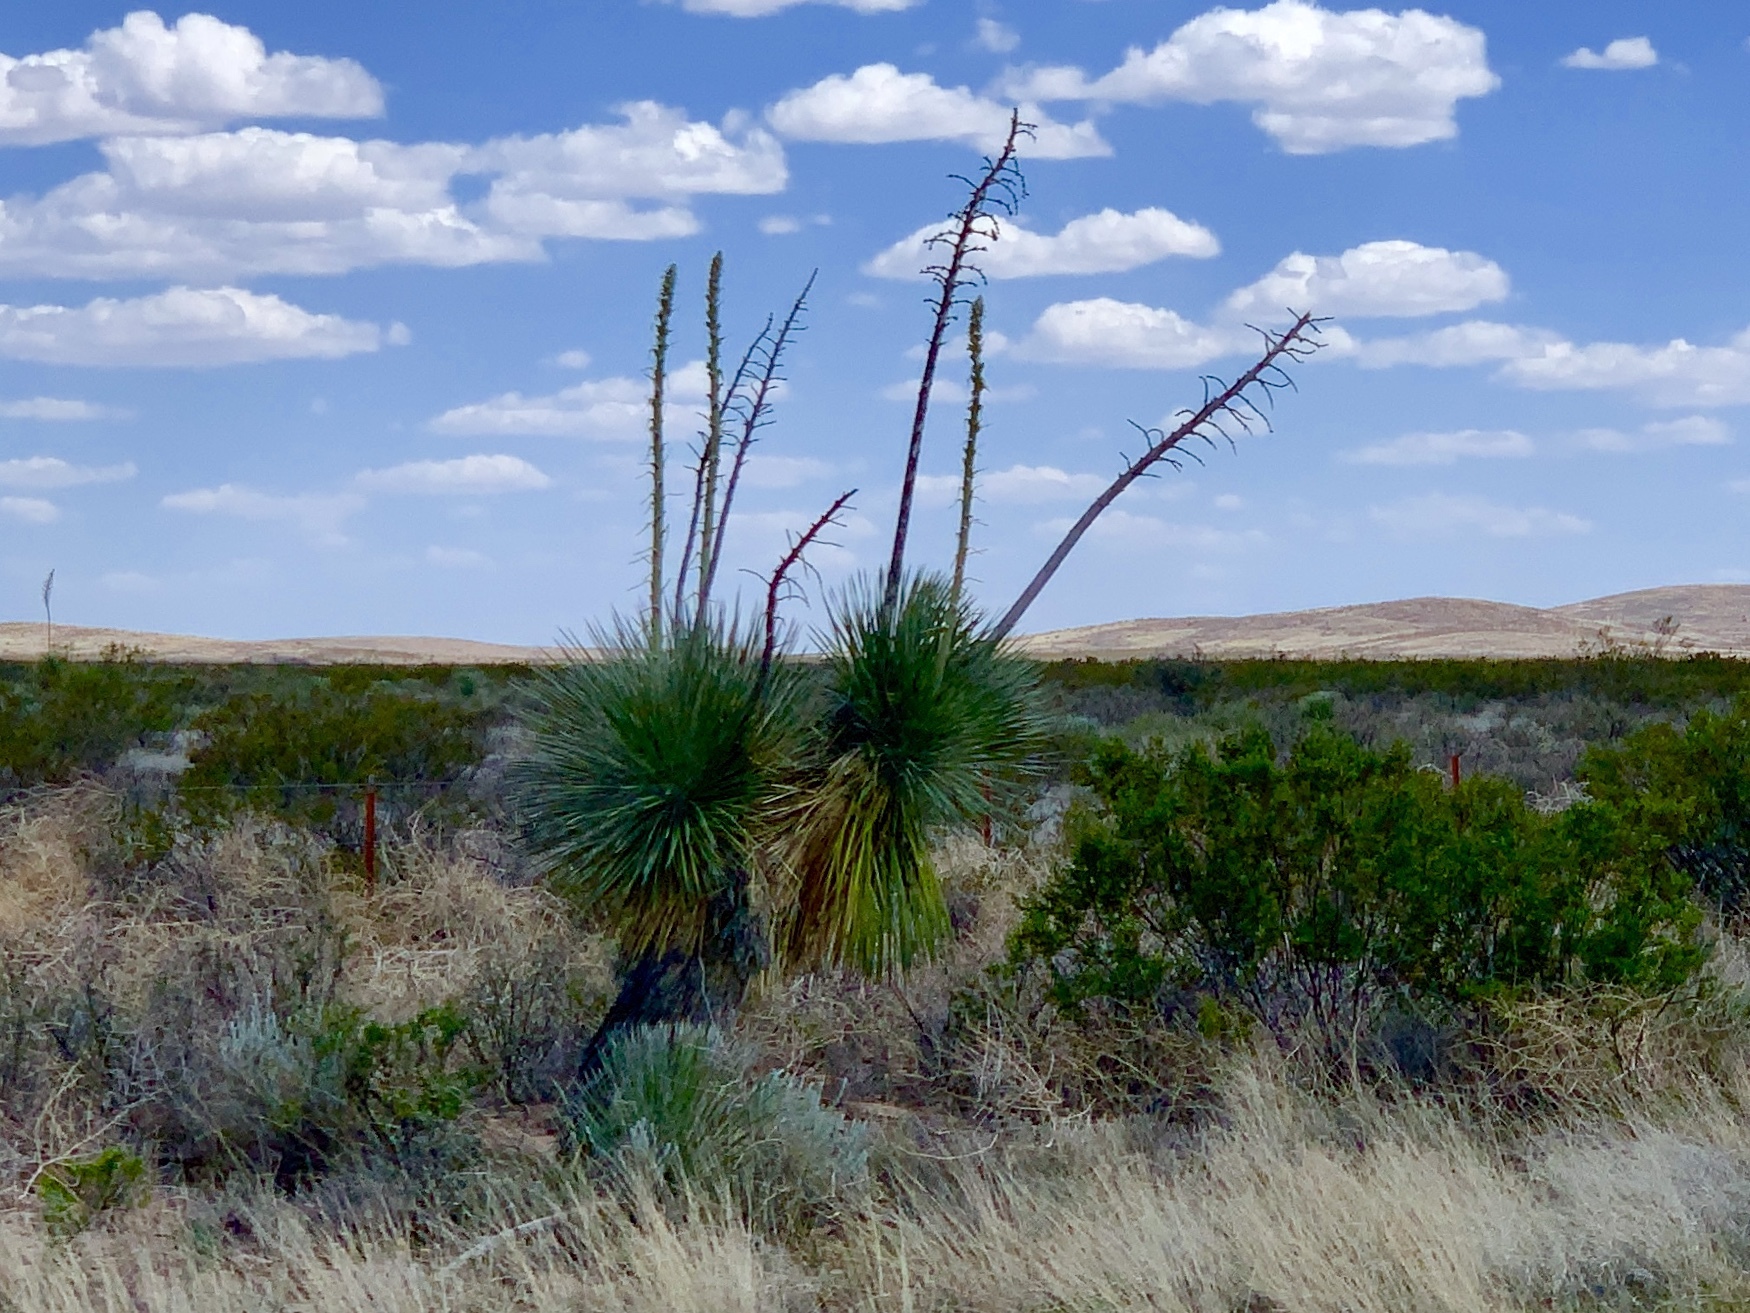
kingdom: Plantae
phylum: Tracheophyta
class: Liliopsida
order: Asparagales
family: Asparagaceae
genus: Yucca
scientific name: Yucca elata
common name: Palmella
